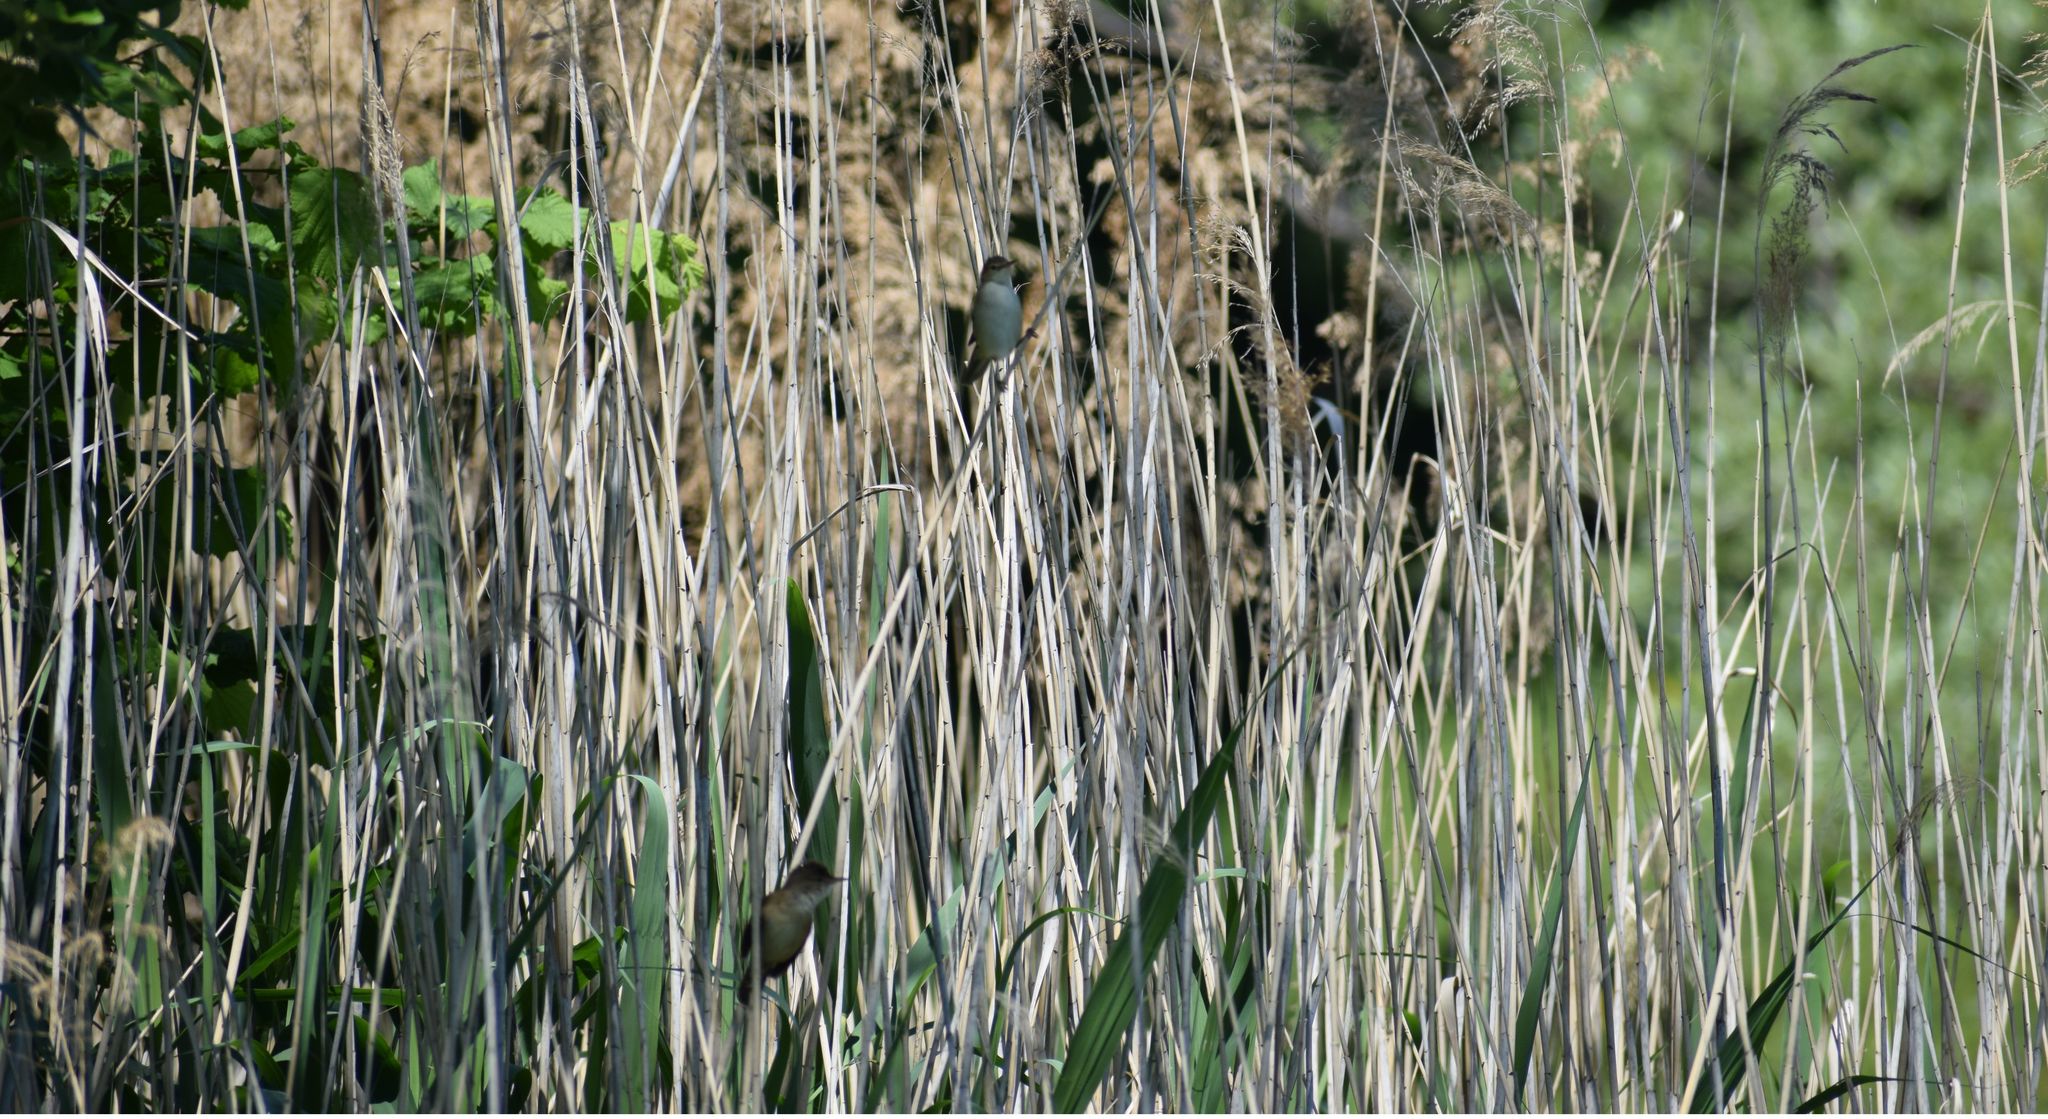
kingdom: Animalia
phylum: Chordata
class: Aves
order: Passeriformes
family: Acrocephalidae
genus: Acrocephalus
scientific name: Acrocephalus scirpaceus
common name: Eurasian reed warbler
